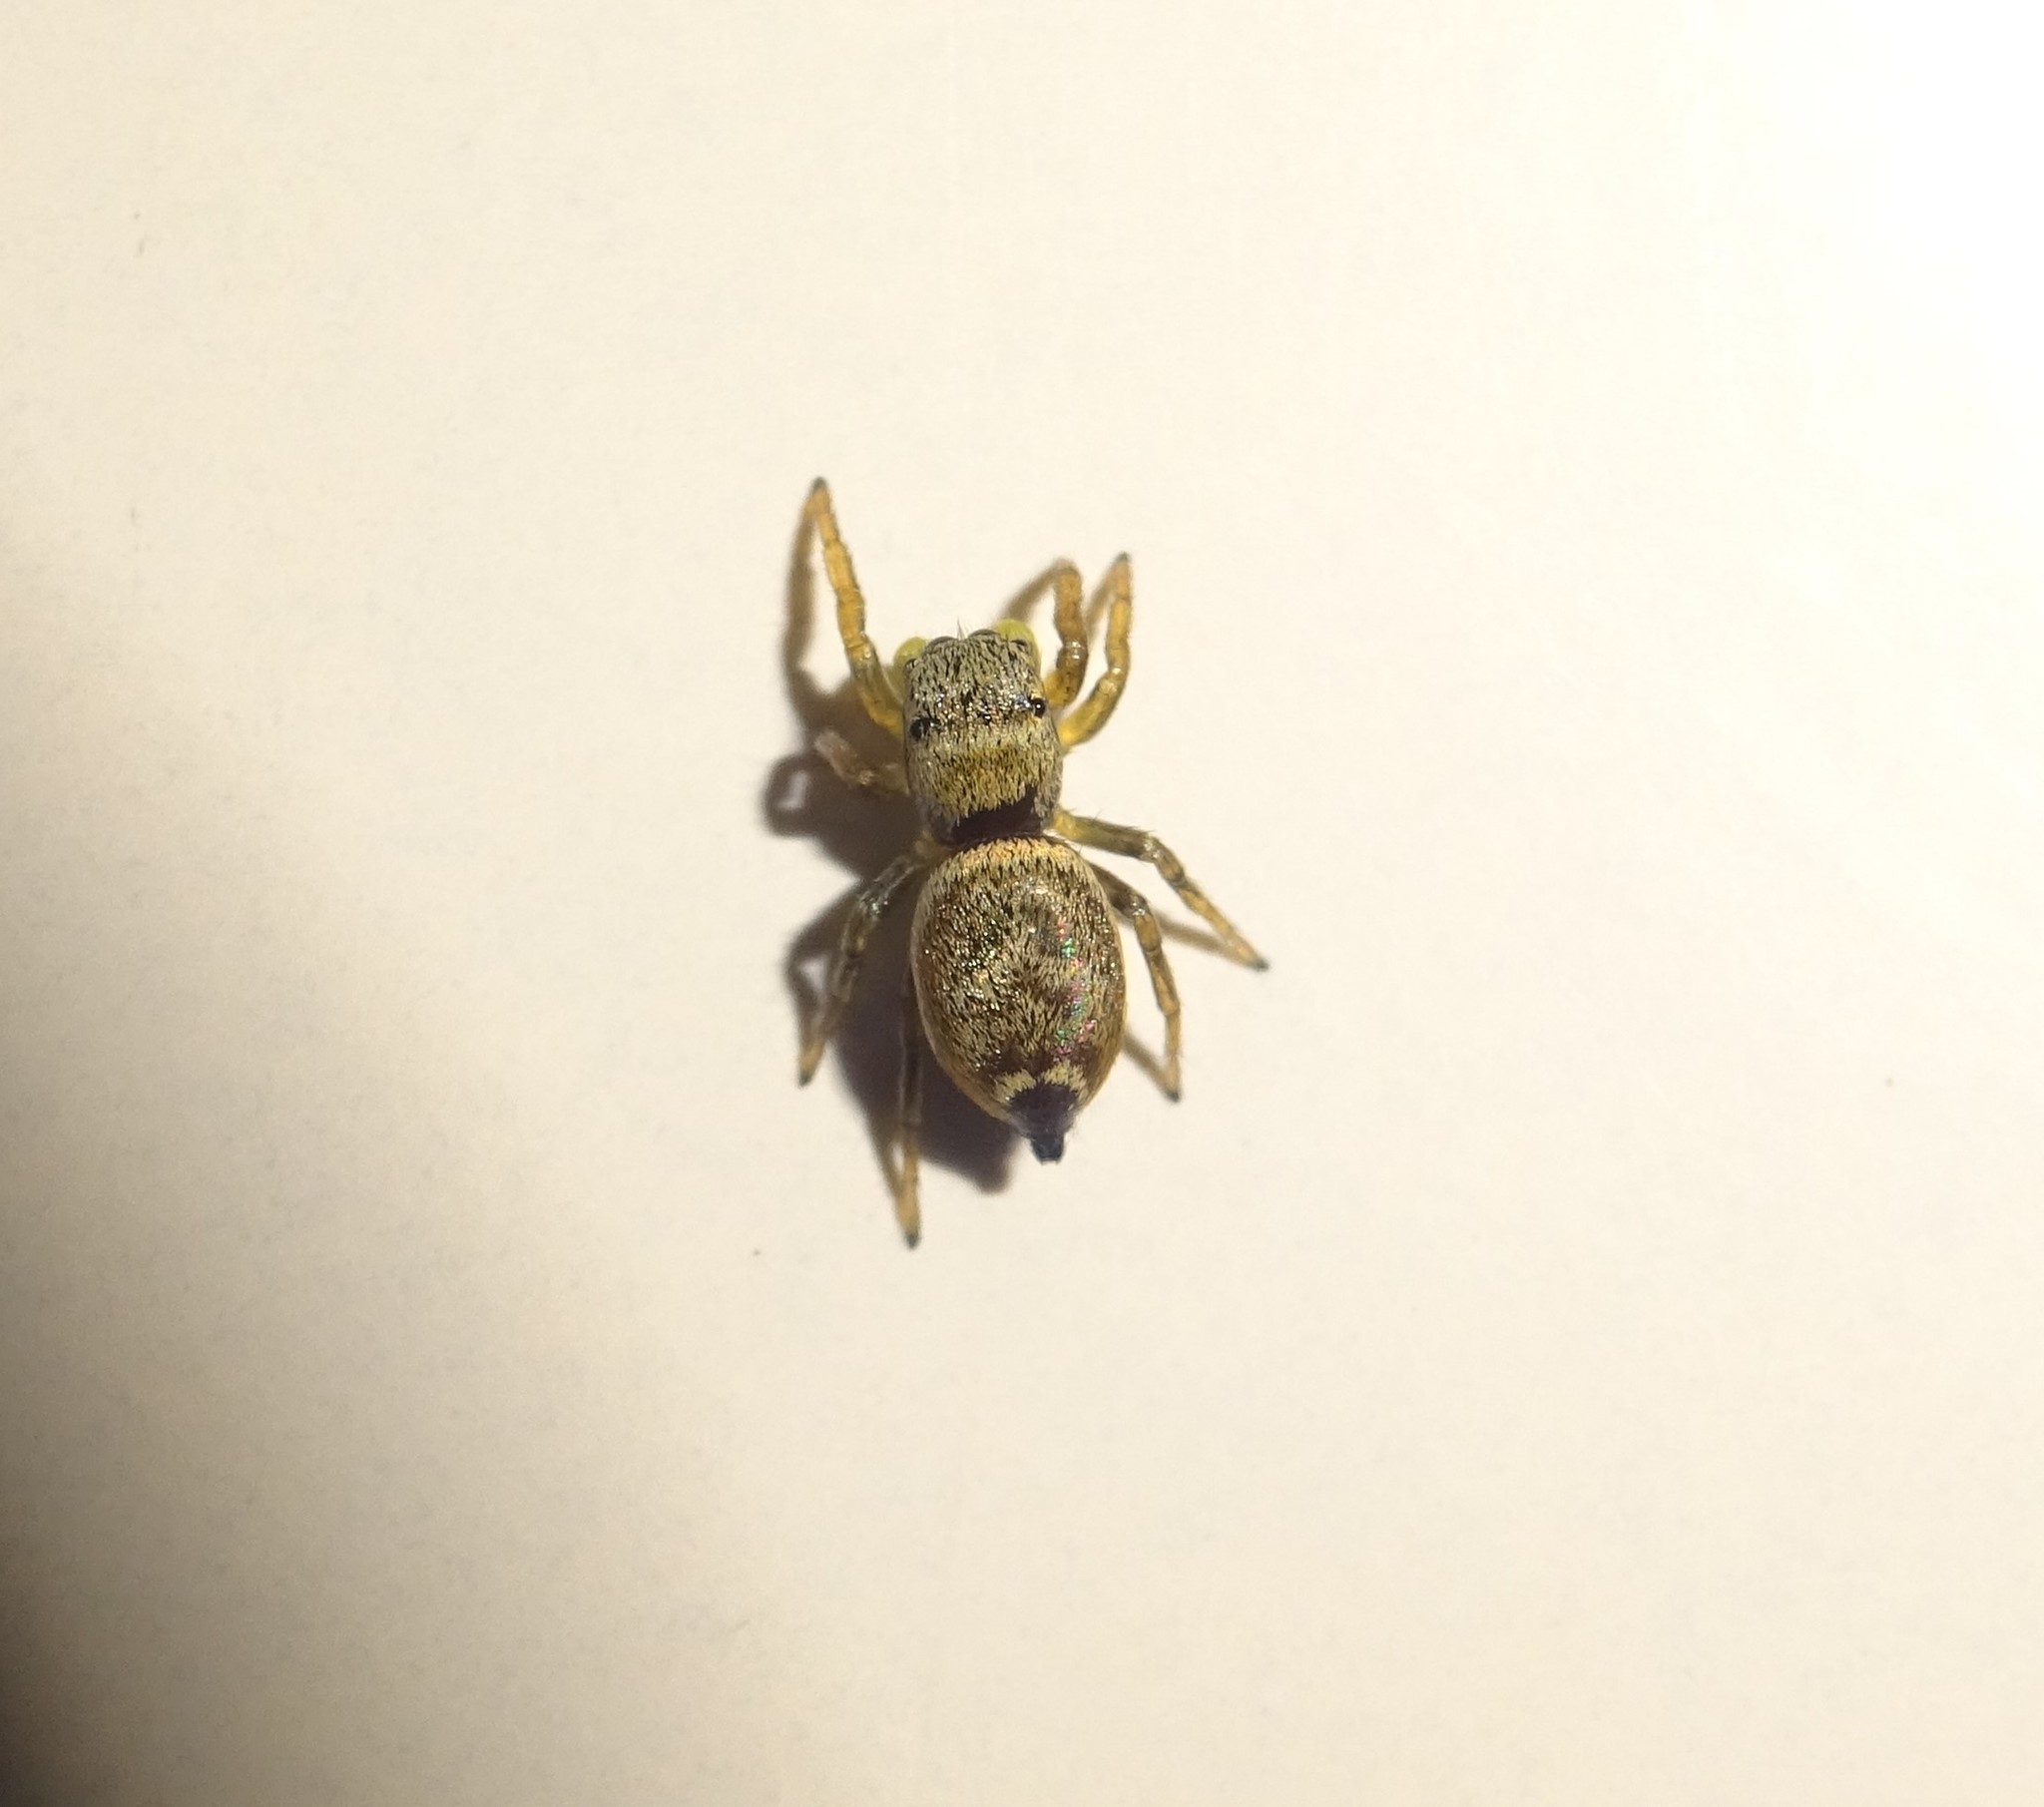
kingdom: Animalia
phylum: Arthropoda
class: Arachnida
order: Araneae
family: Salticidae
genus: Heliophanus
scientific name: Heliophanus tribulosus
